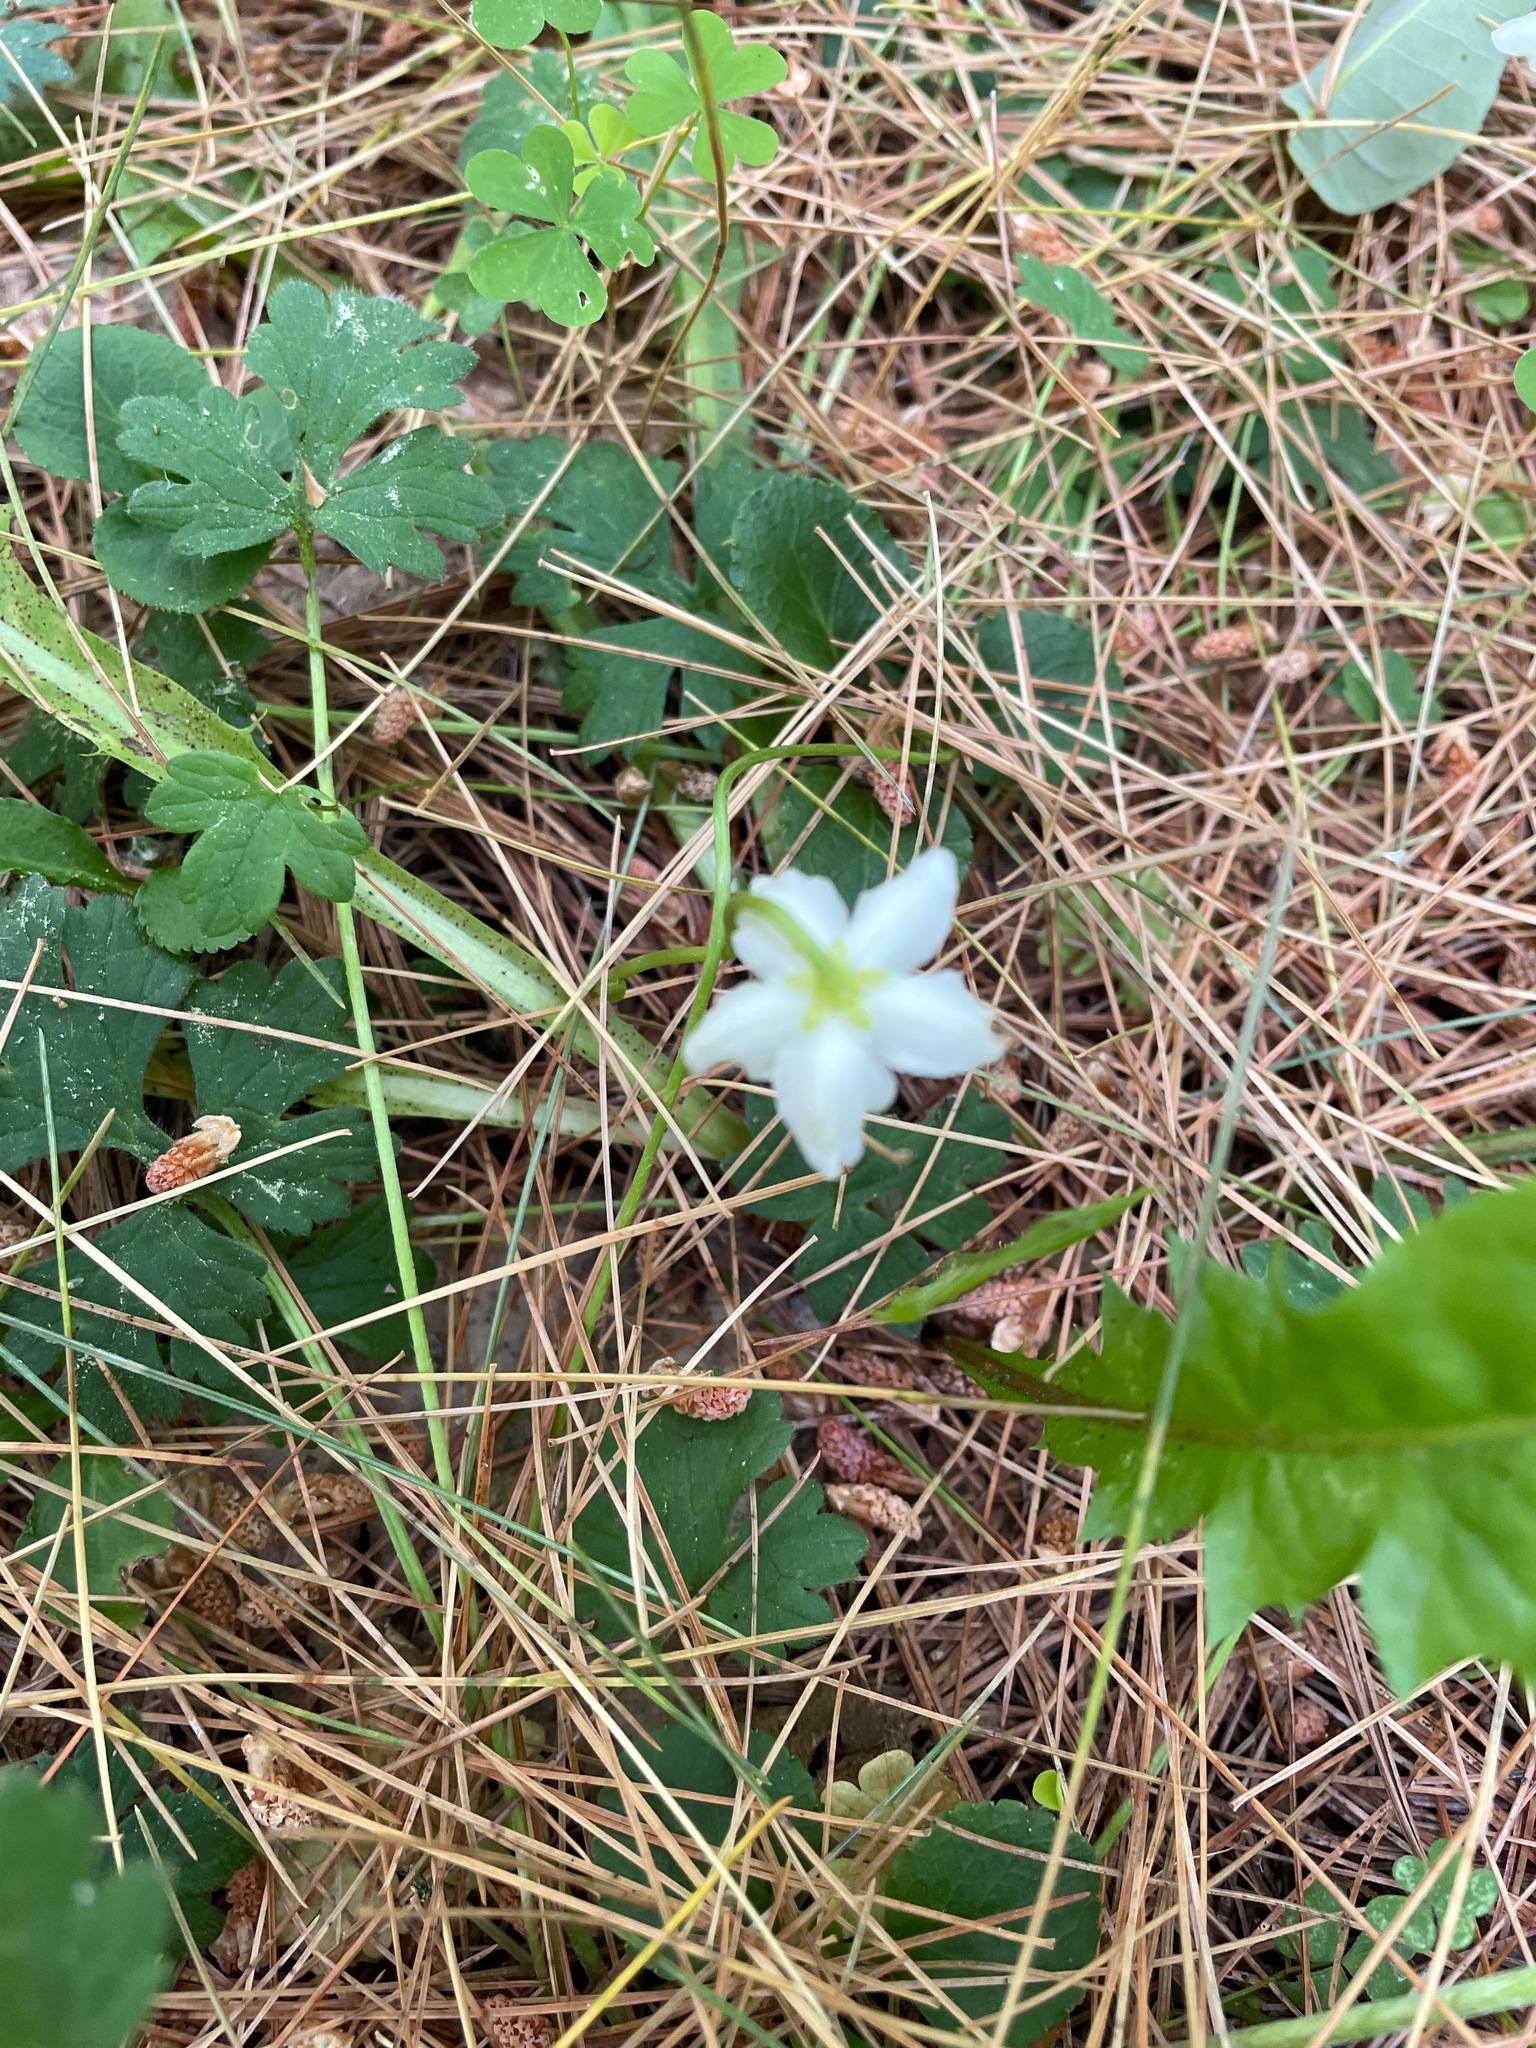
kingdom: Plantae
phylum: Tracheophyta
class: Magnoliopsida
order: Ericales
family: Ericaceae
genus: Moneses
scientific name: Moneses uniflora
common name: One-flowered wintergreen
